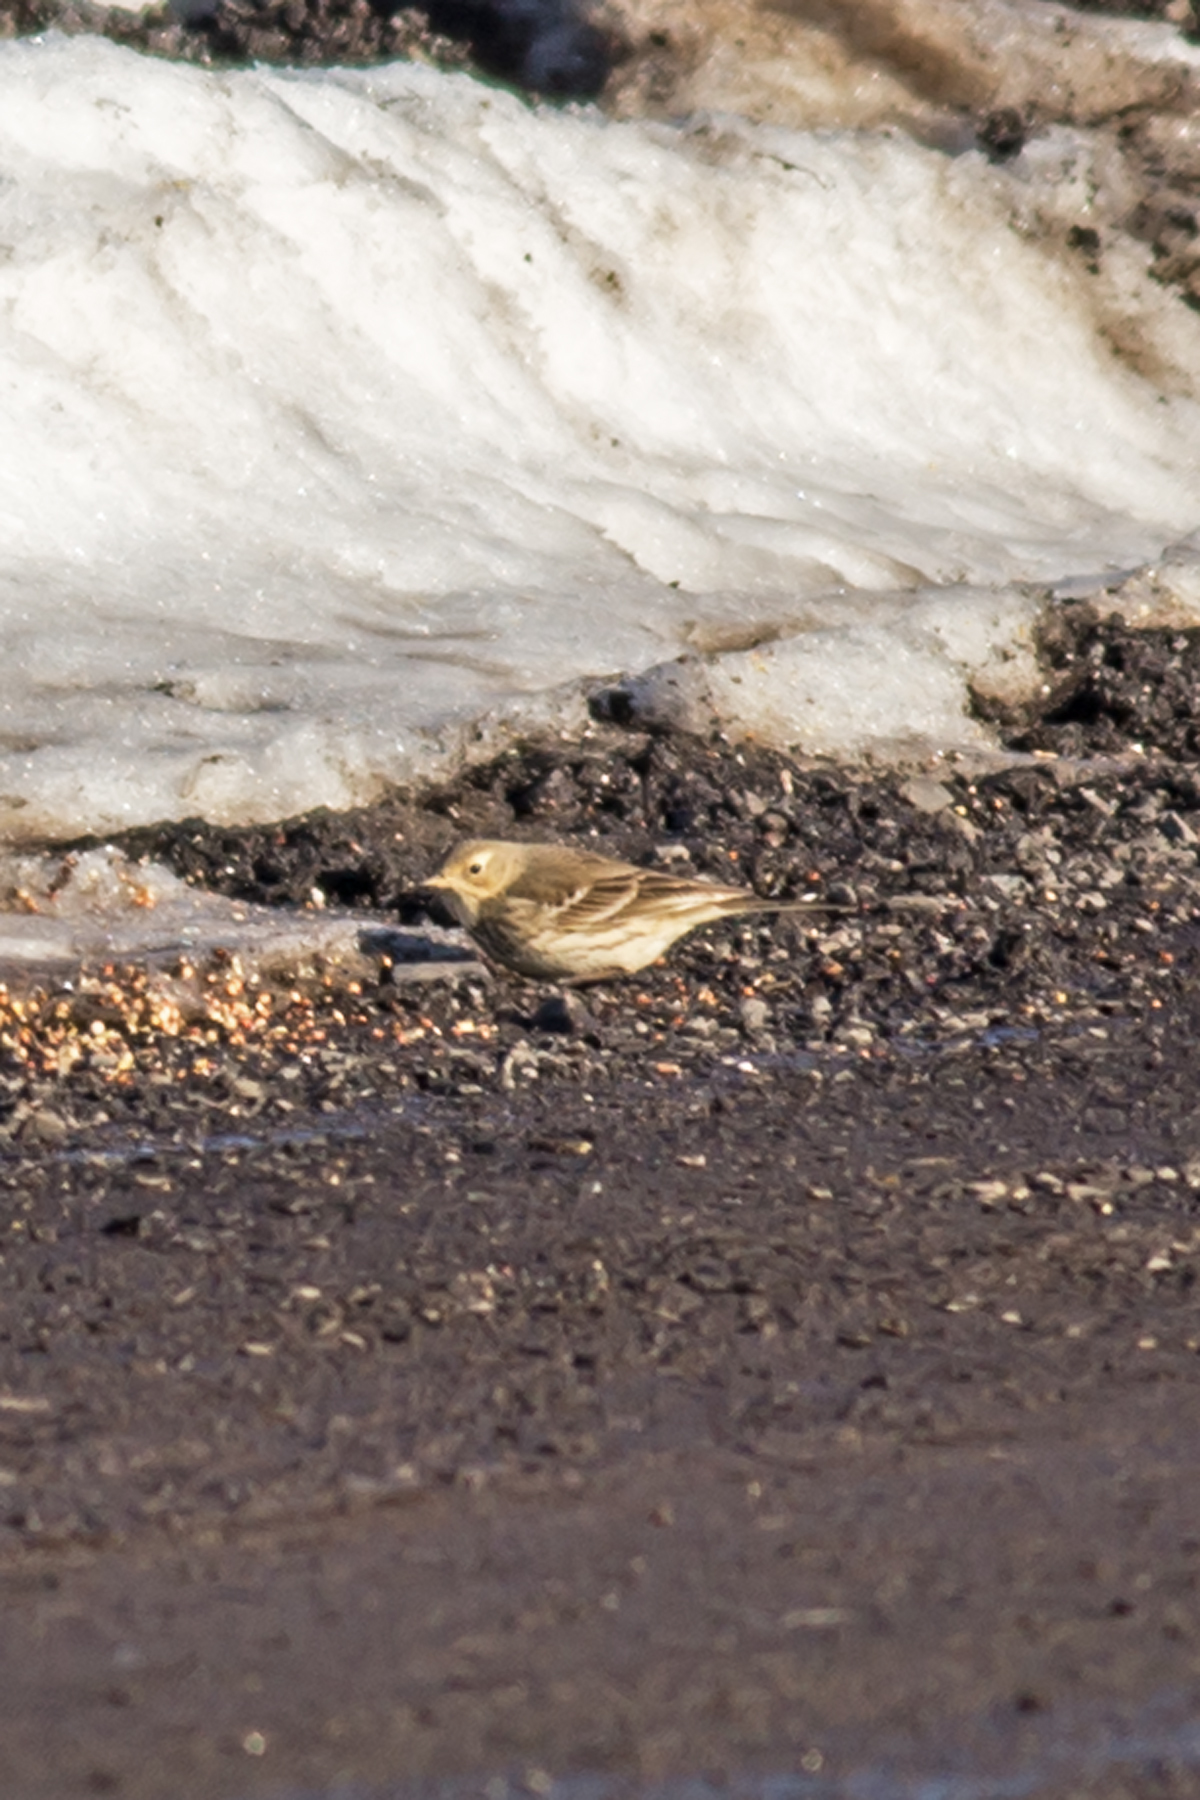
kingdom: Animalia
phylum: Chordata
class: Aves
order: Passeriformes
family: Motacillidae
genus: Anthus
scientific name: Anthus rubescens
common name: Buff-bellied pipit
